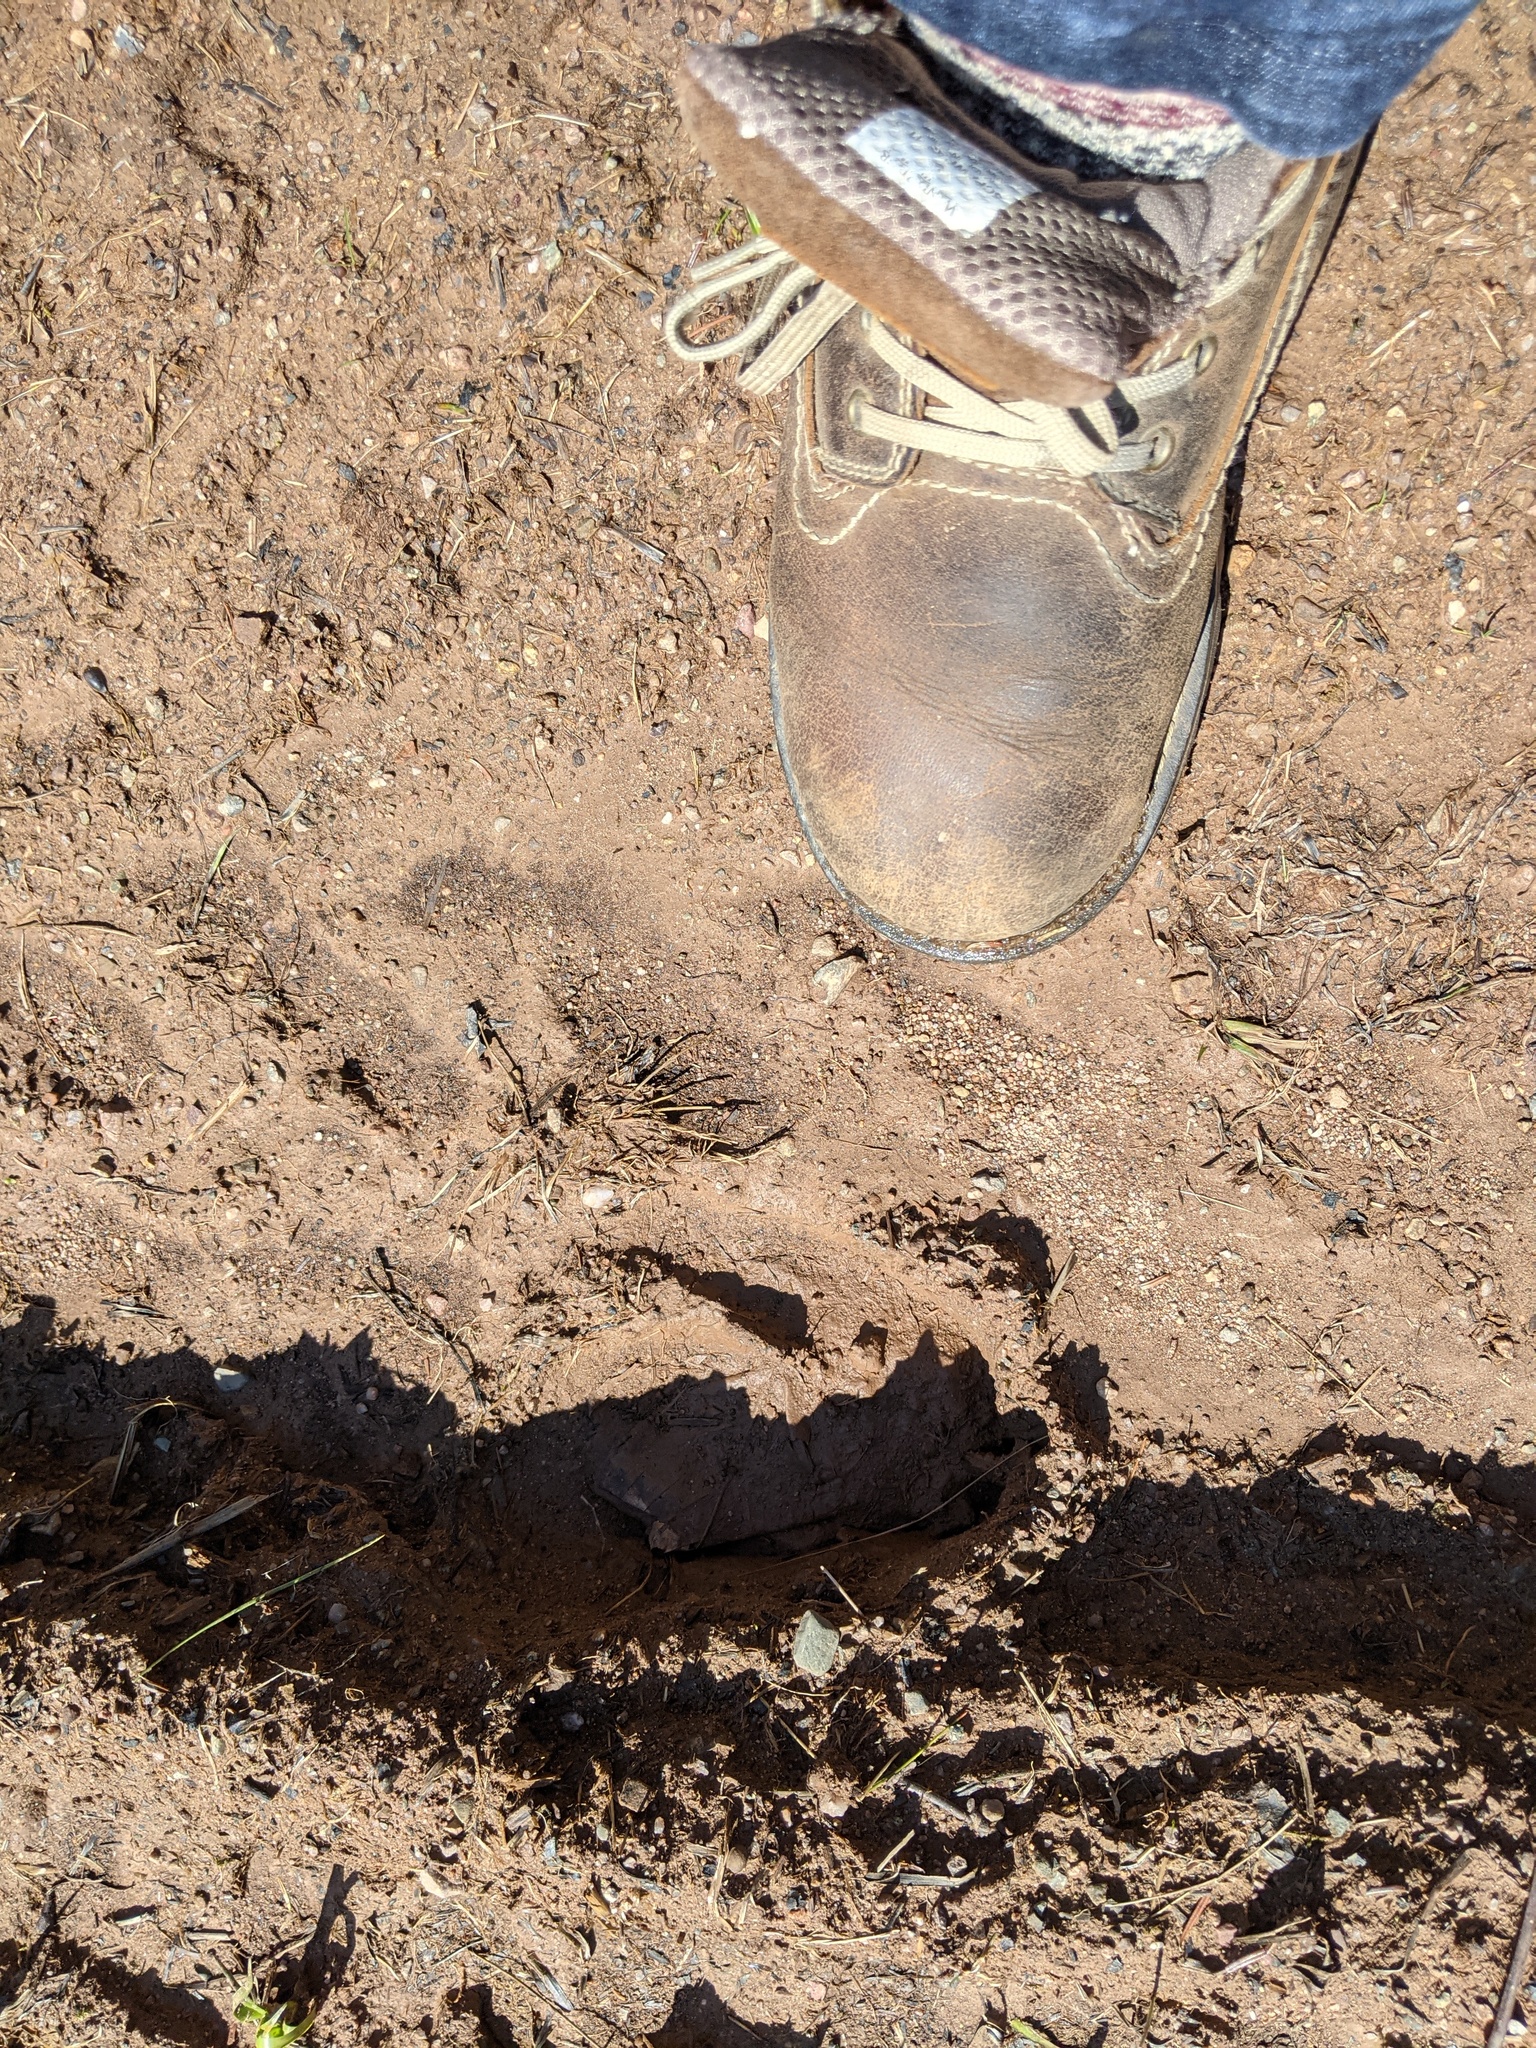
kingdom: Animalia
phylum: Chordata
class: Mammalia
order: Artiodactyla
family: Cervidae
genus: Odocoileus
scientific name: Odocoileus virginianus
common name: White-tailed deer
